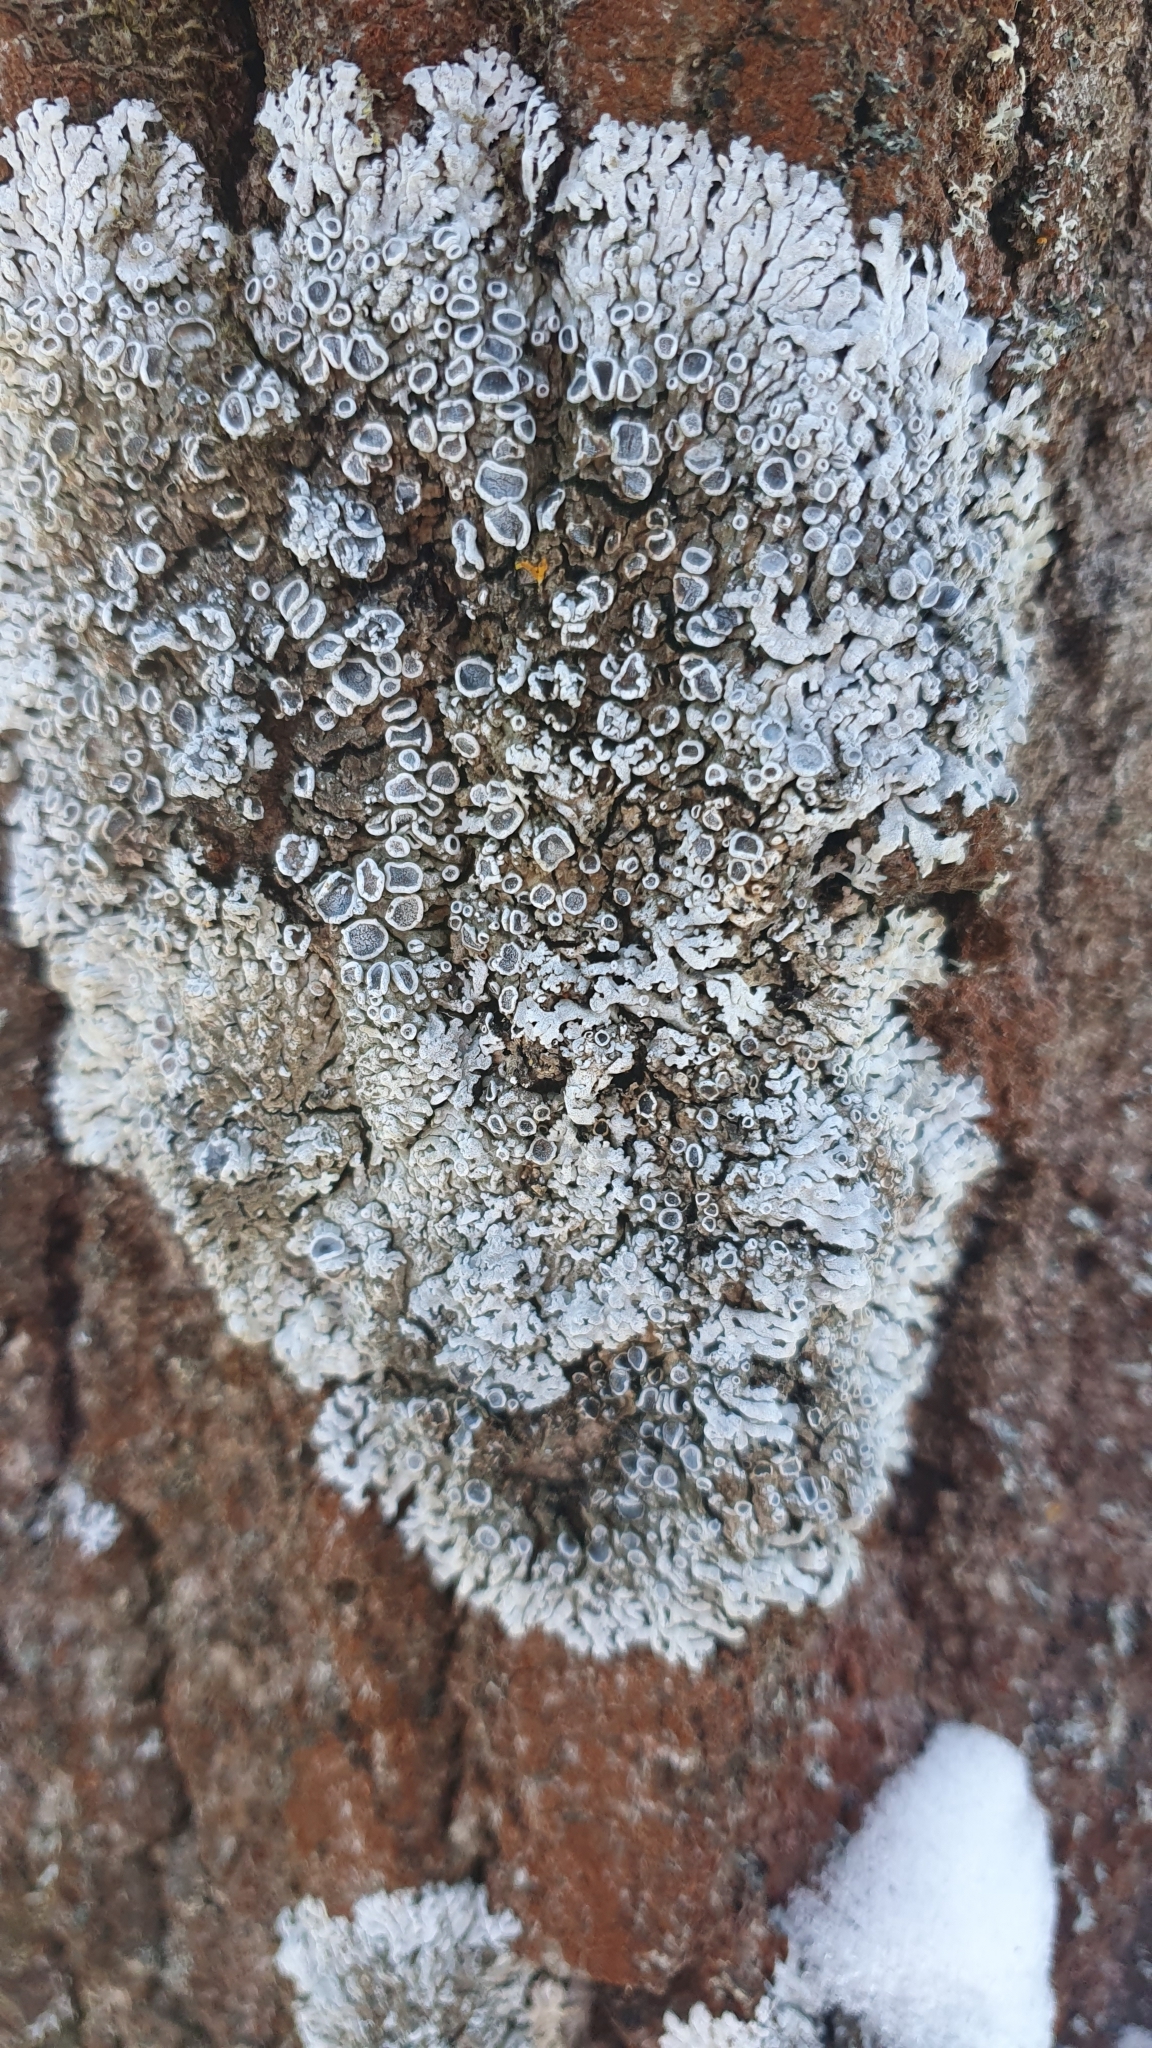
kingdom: Fungi
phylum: Ascomycota
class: Lecanoromycetes
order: Caliciales
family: Physciaceae
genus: Physconia
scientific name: Physconia distorta
